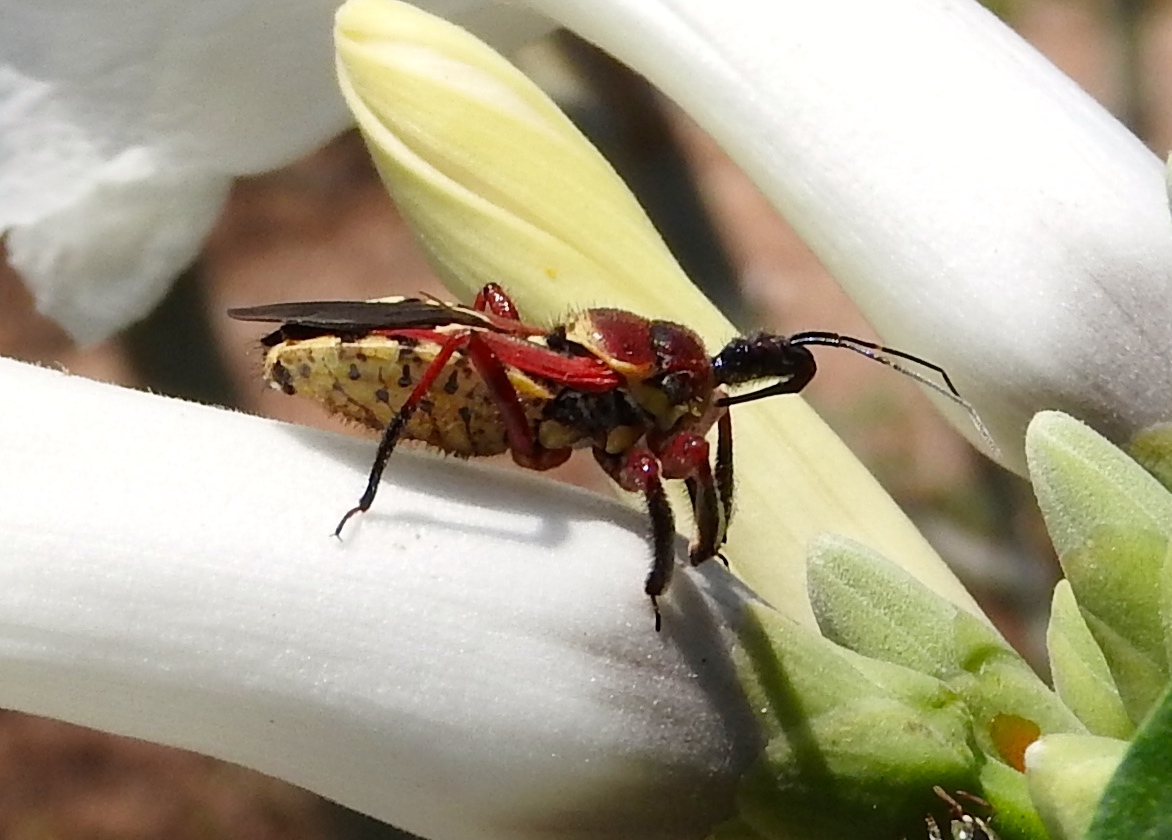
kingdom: Animalia
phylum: Arthropoda
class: Insecta
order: Hemiptera
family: Reduviidae
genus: Apiomerus
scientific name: Apiomerus flaviventris
